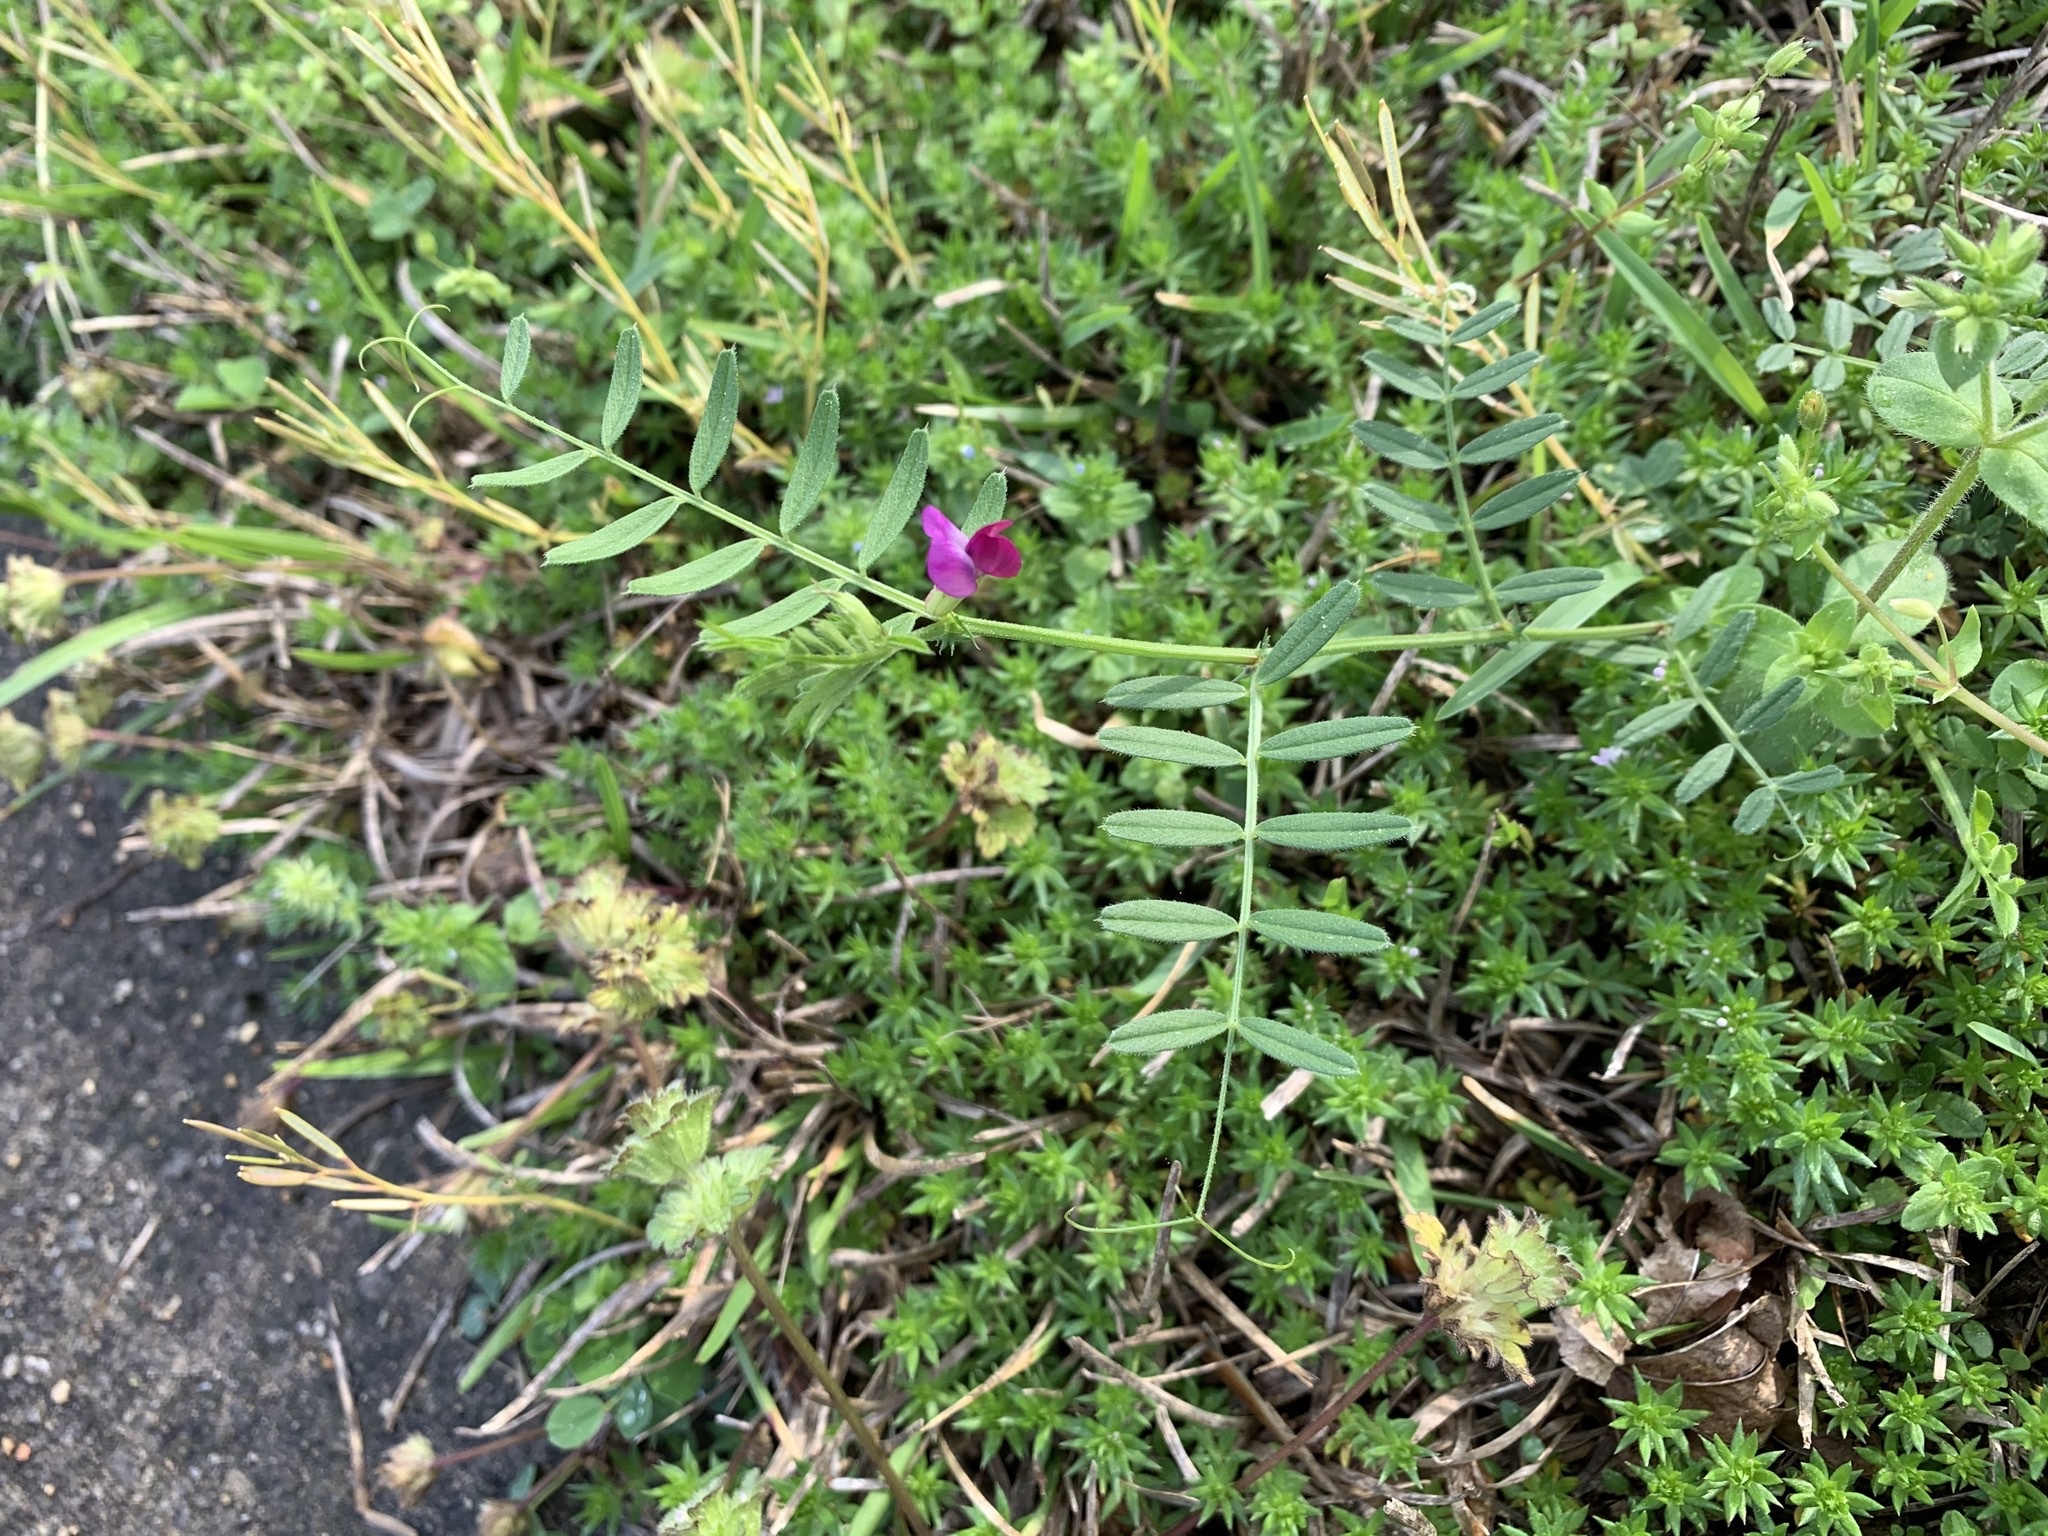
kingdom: Plantae
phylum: Tracheophyta
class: Magnoliopsida
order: Fabales
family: Fabaceae
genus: Vicia
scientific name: Vicia sativa
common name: Garden vetch
